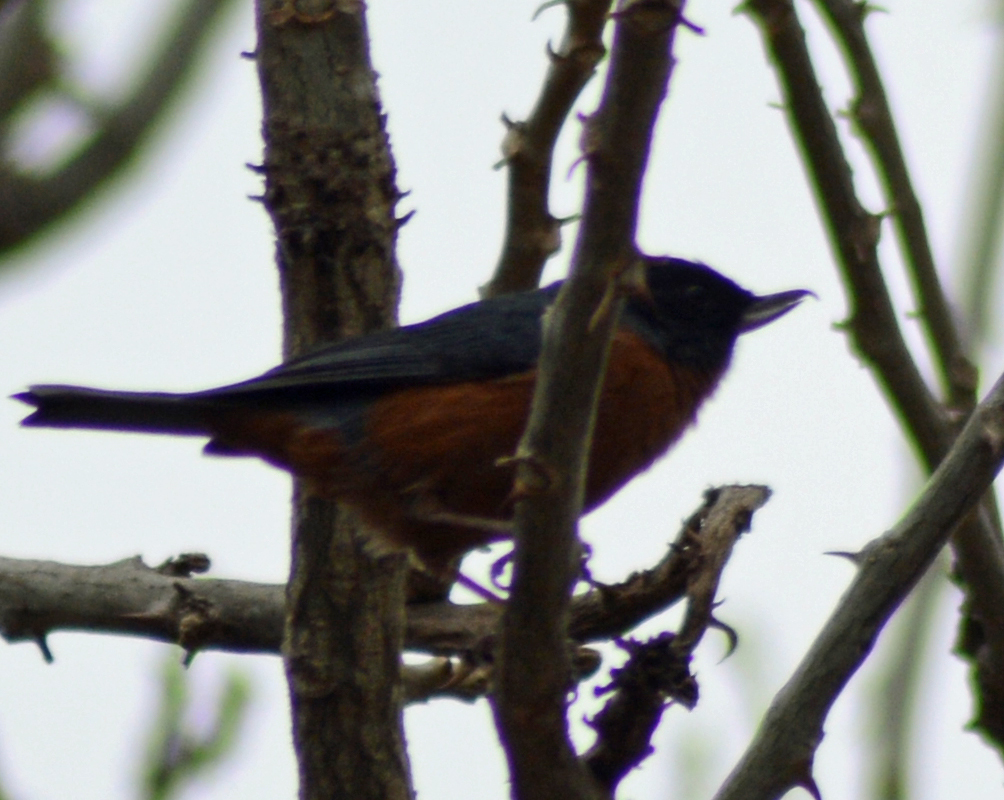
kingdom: Animalia
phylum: Chordata
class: Aves
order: Passeriformes
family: Thraupidae
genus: Diglossa
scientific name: Diglossa baritula
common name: Cinnamon-bellied flowerpiercer
